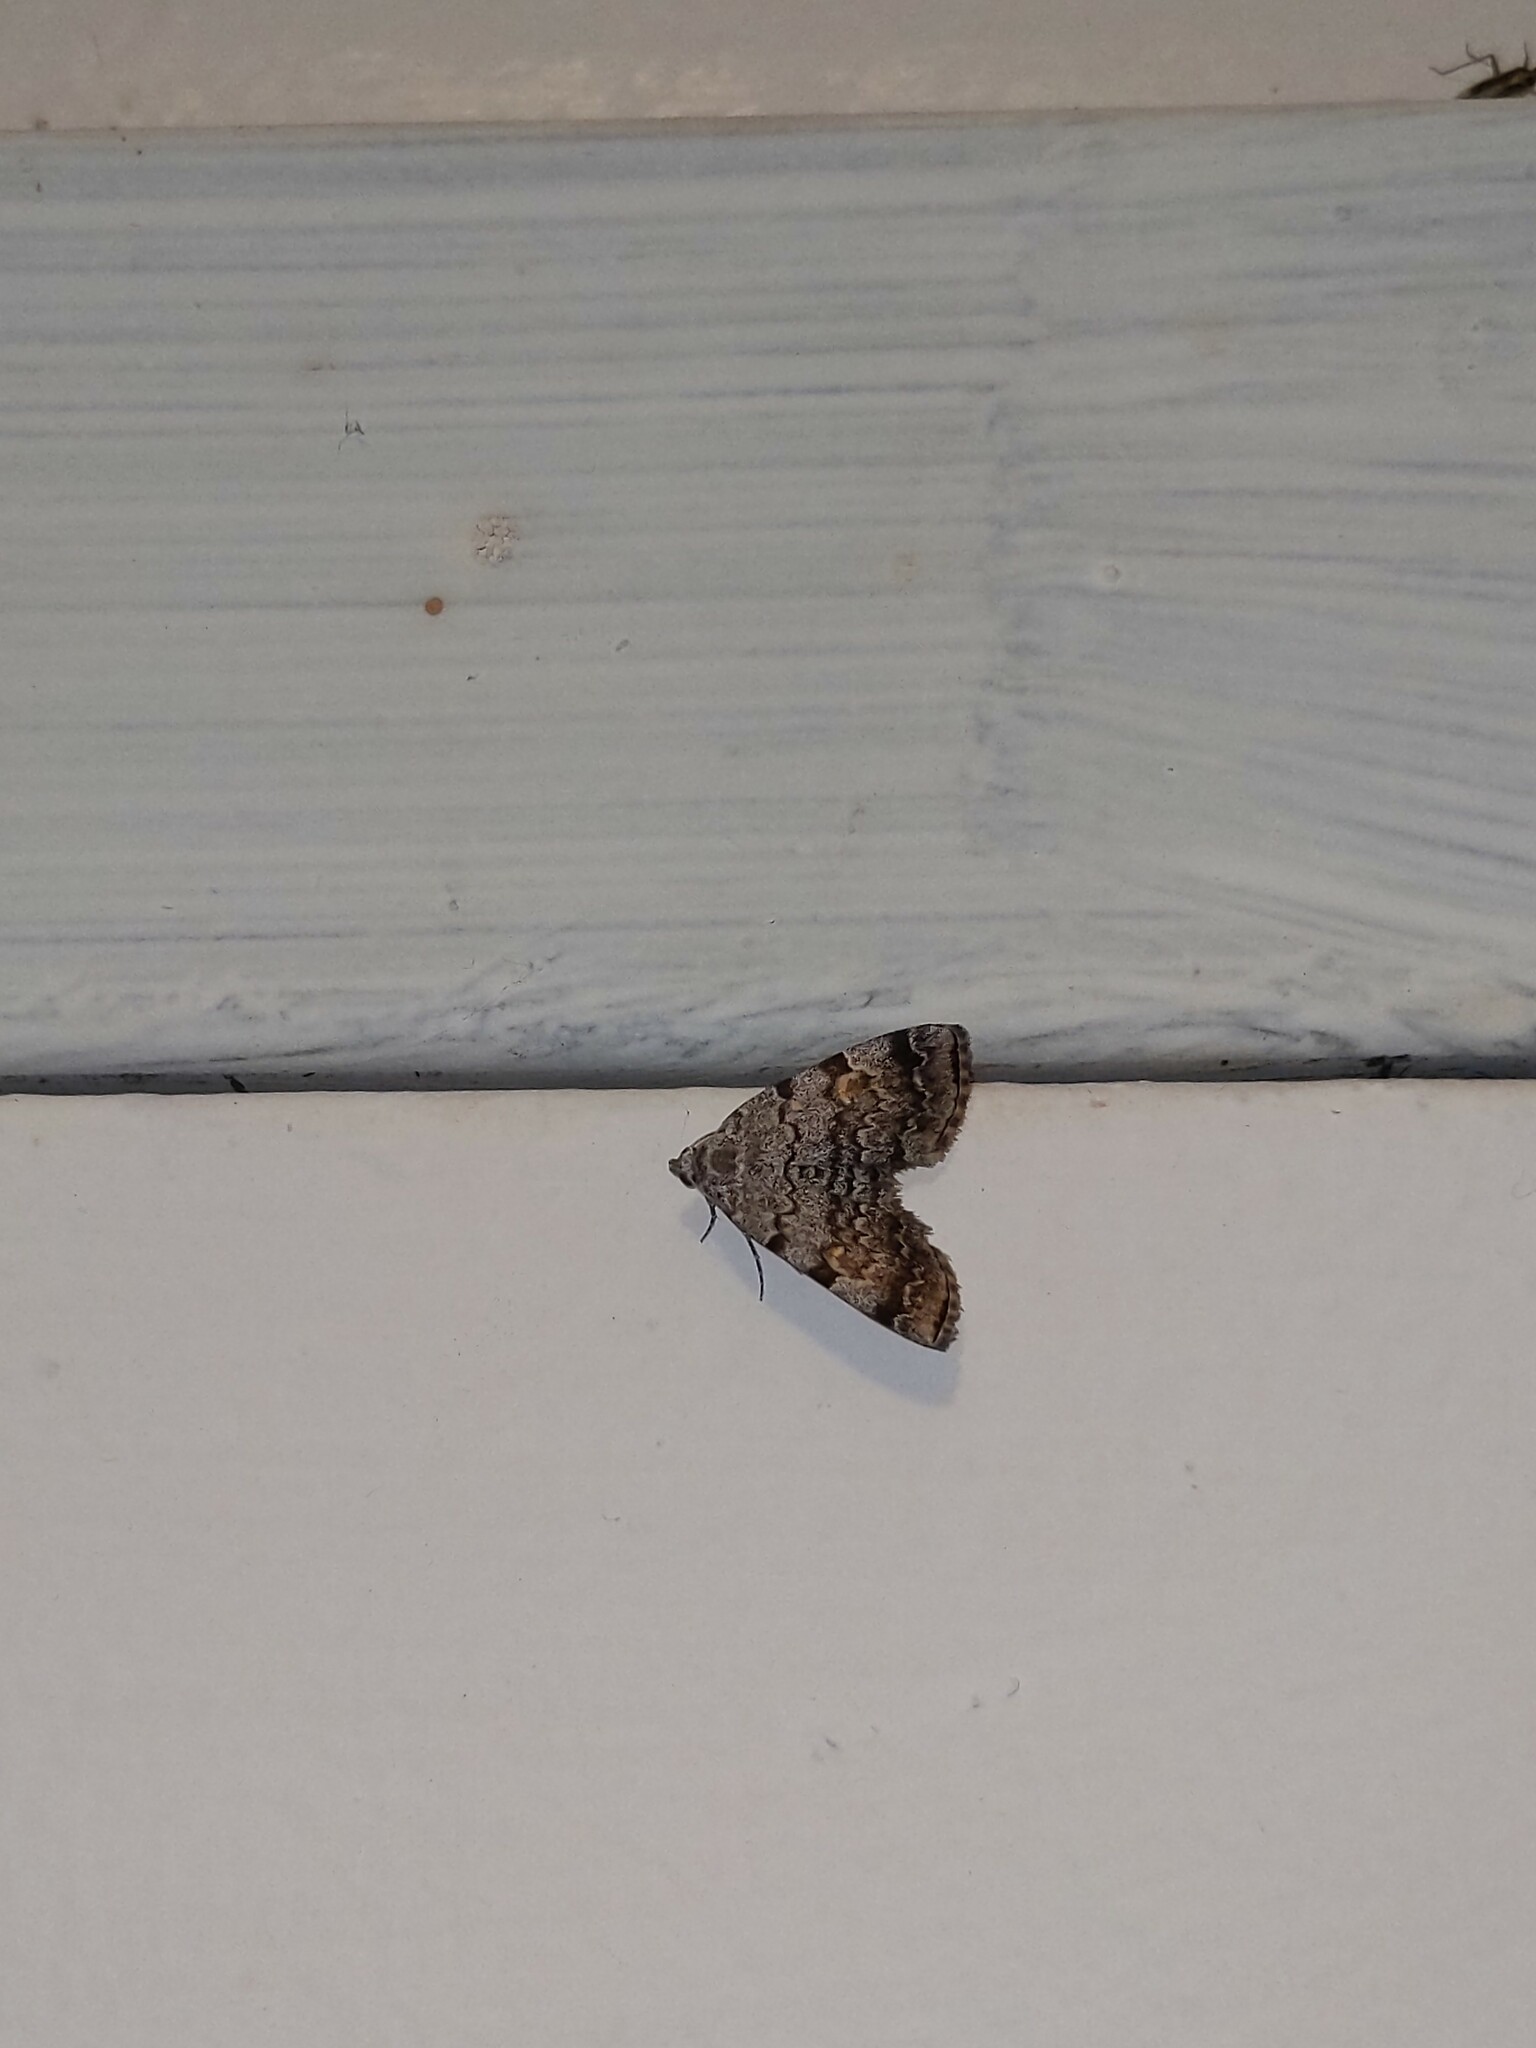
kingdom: Animalia
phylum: Arthropoda
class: Insecta
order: Lepidoptera
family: Erebidae
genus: Idia
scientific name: Idia americalis
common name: American idia moth
